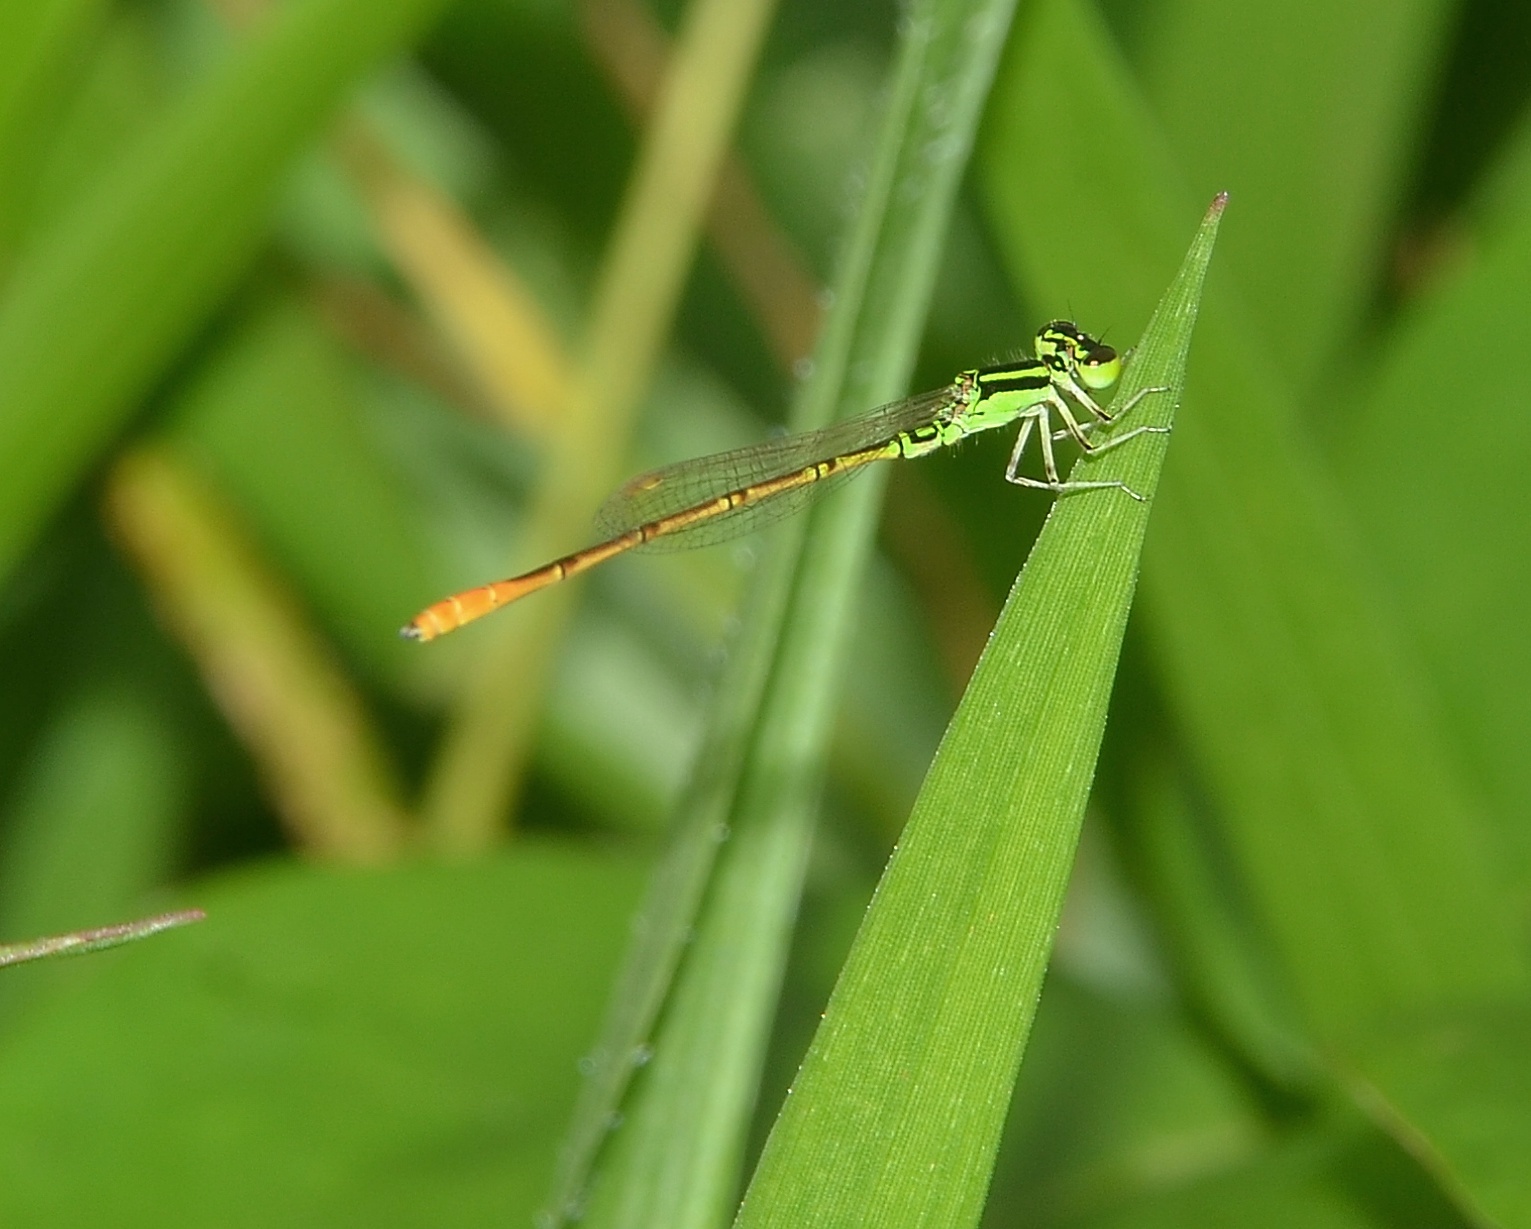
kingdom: Animalia
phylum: Arthropoda
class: Insecta
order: Odonata
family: Coenagrionidae
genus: Agriocnemis
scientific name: Agriocnemis keralensis
